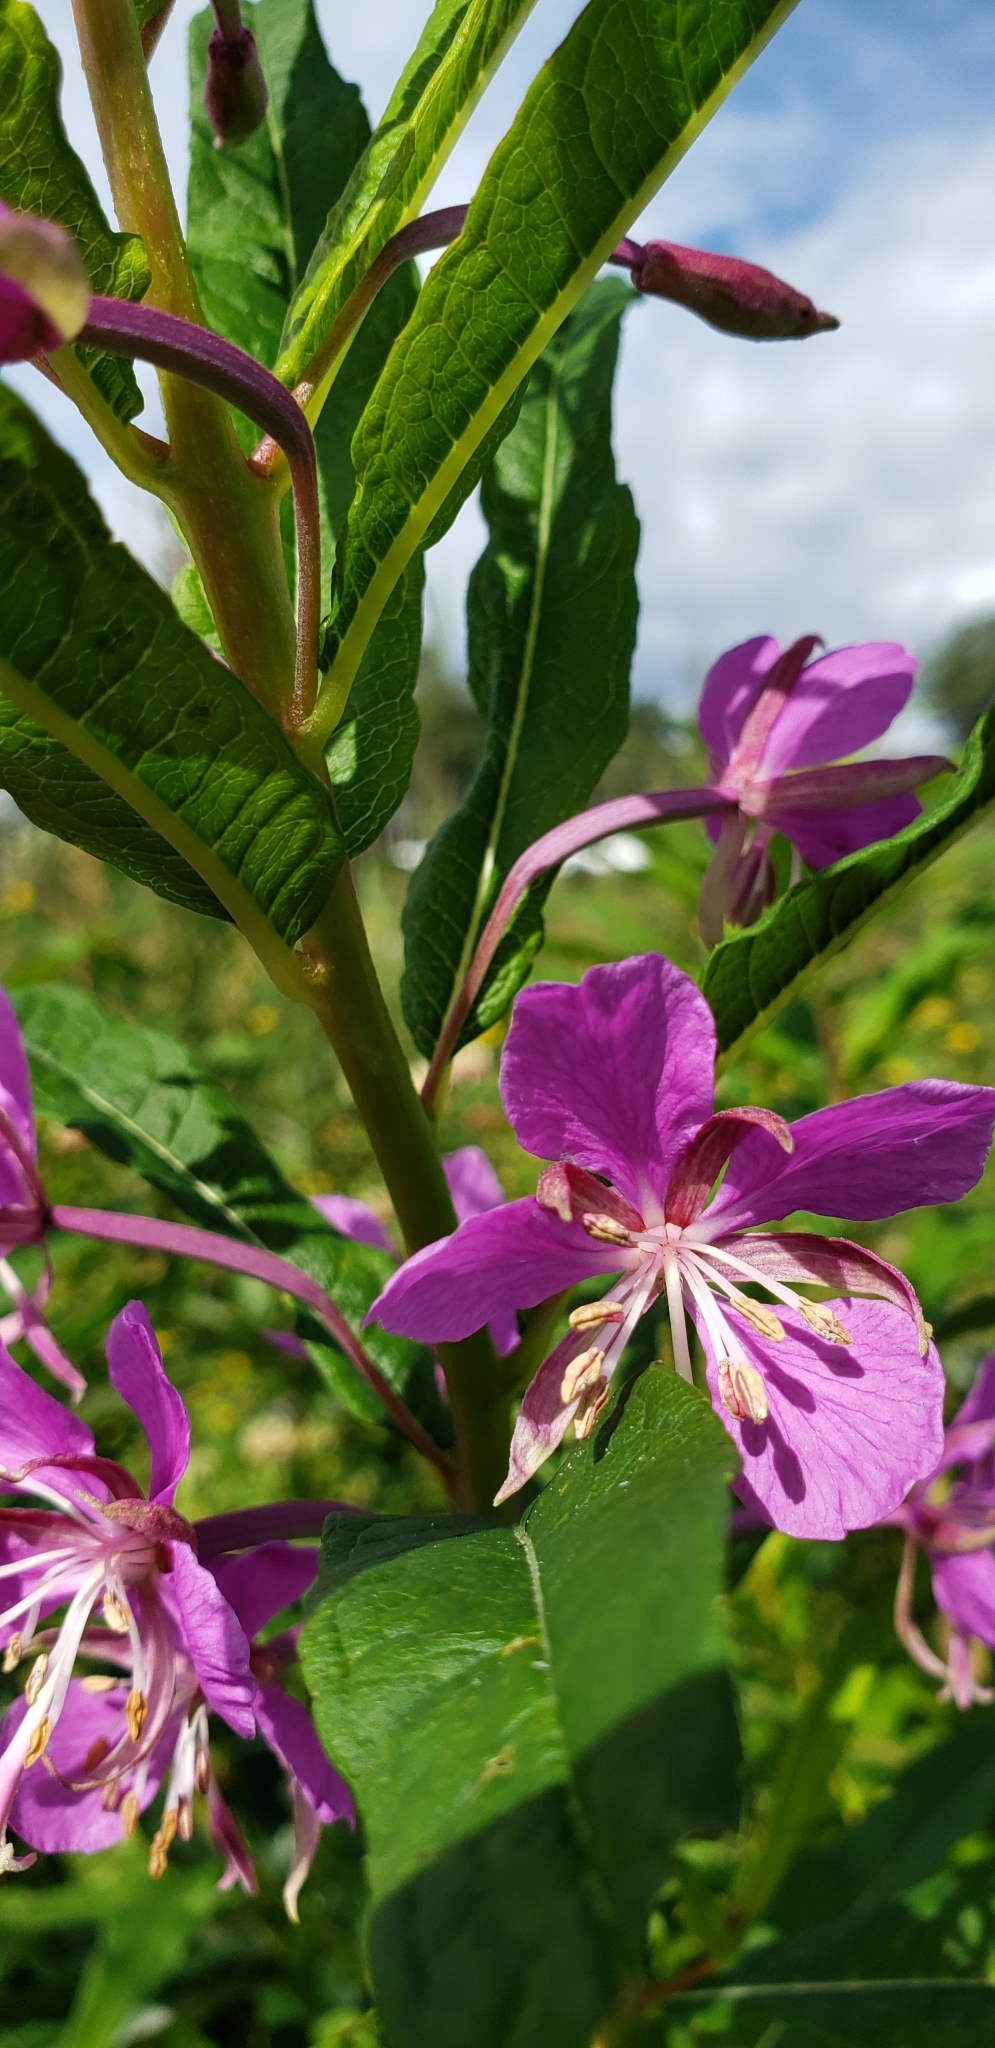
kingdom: Plantae
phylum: Tracheophyta
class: Magnoliopsida
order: Myrtales
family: Onagraceae
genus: Chamaenerion
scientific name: Chamaenerion angustifolium
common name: Fireweed
